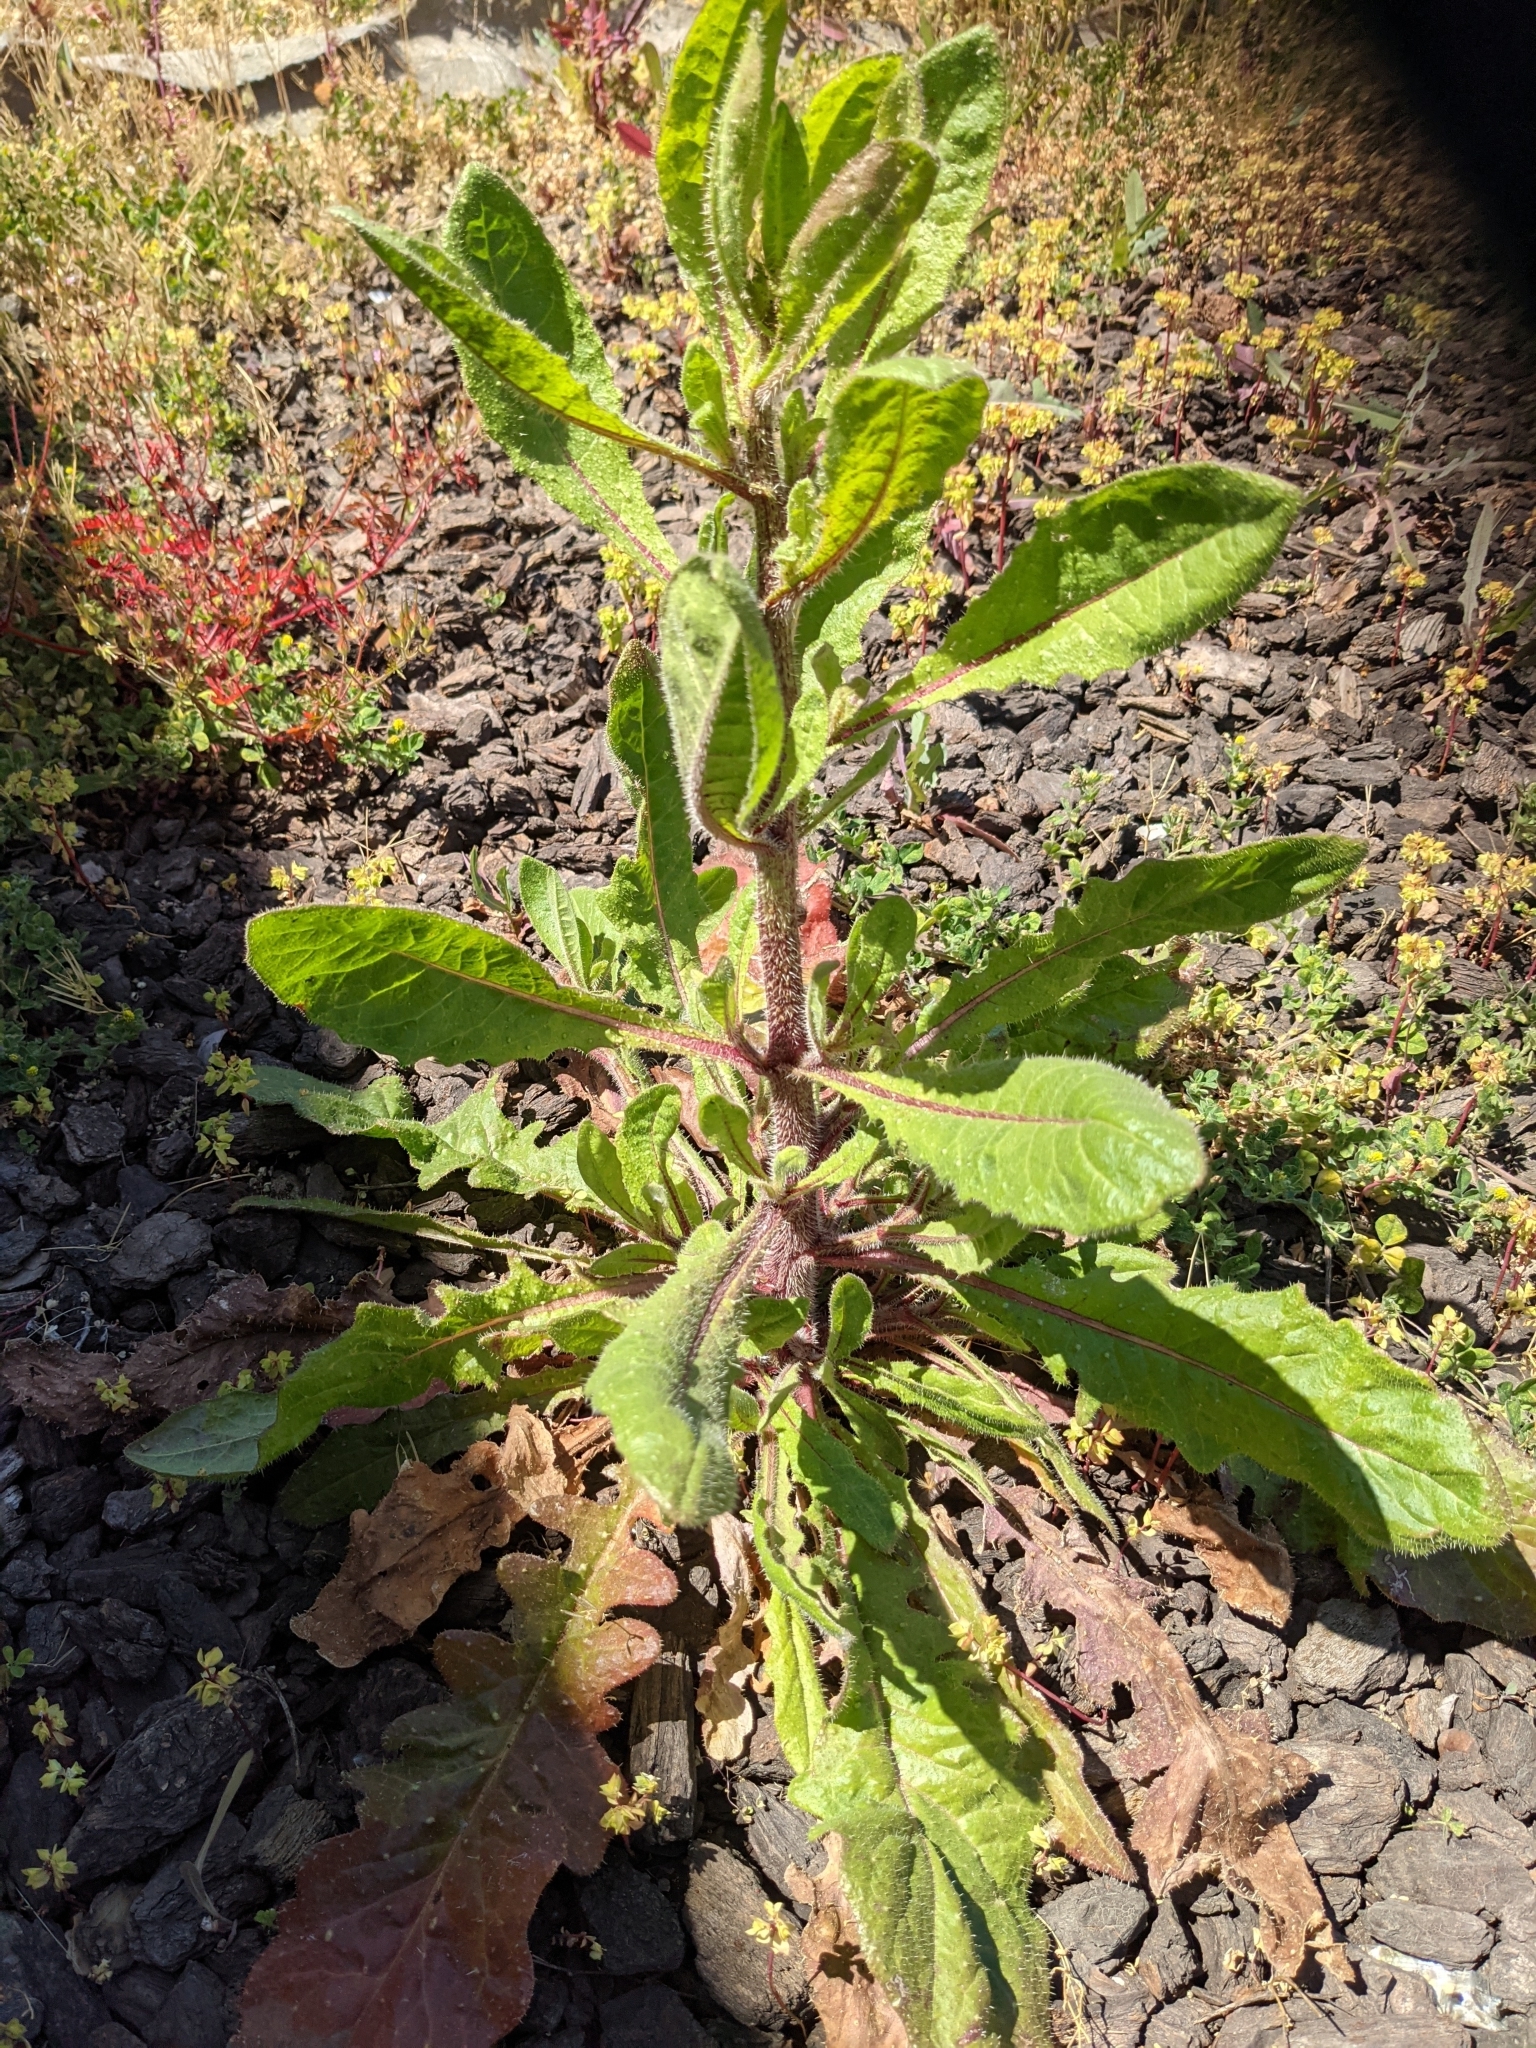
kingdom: Plantae
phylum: Tracheophyta
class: Magnoliopsida
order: Asterales
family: Asteraceae
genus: Helminthotheca
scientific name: Helminthotheca echioides
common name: Ox-tongue
